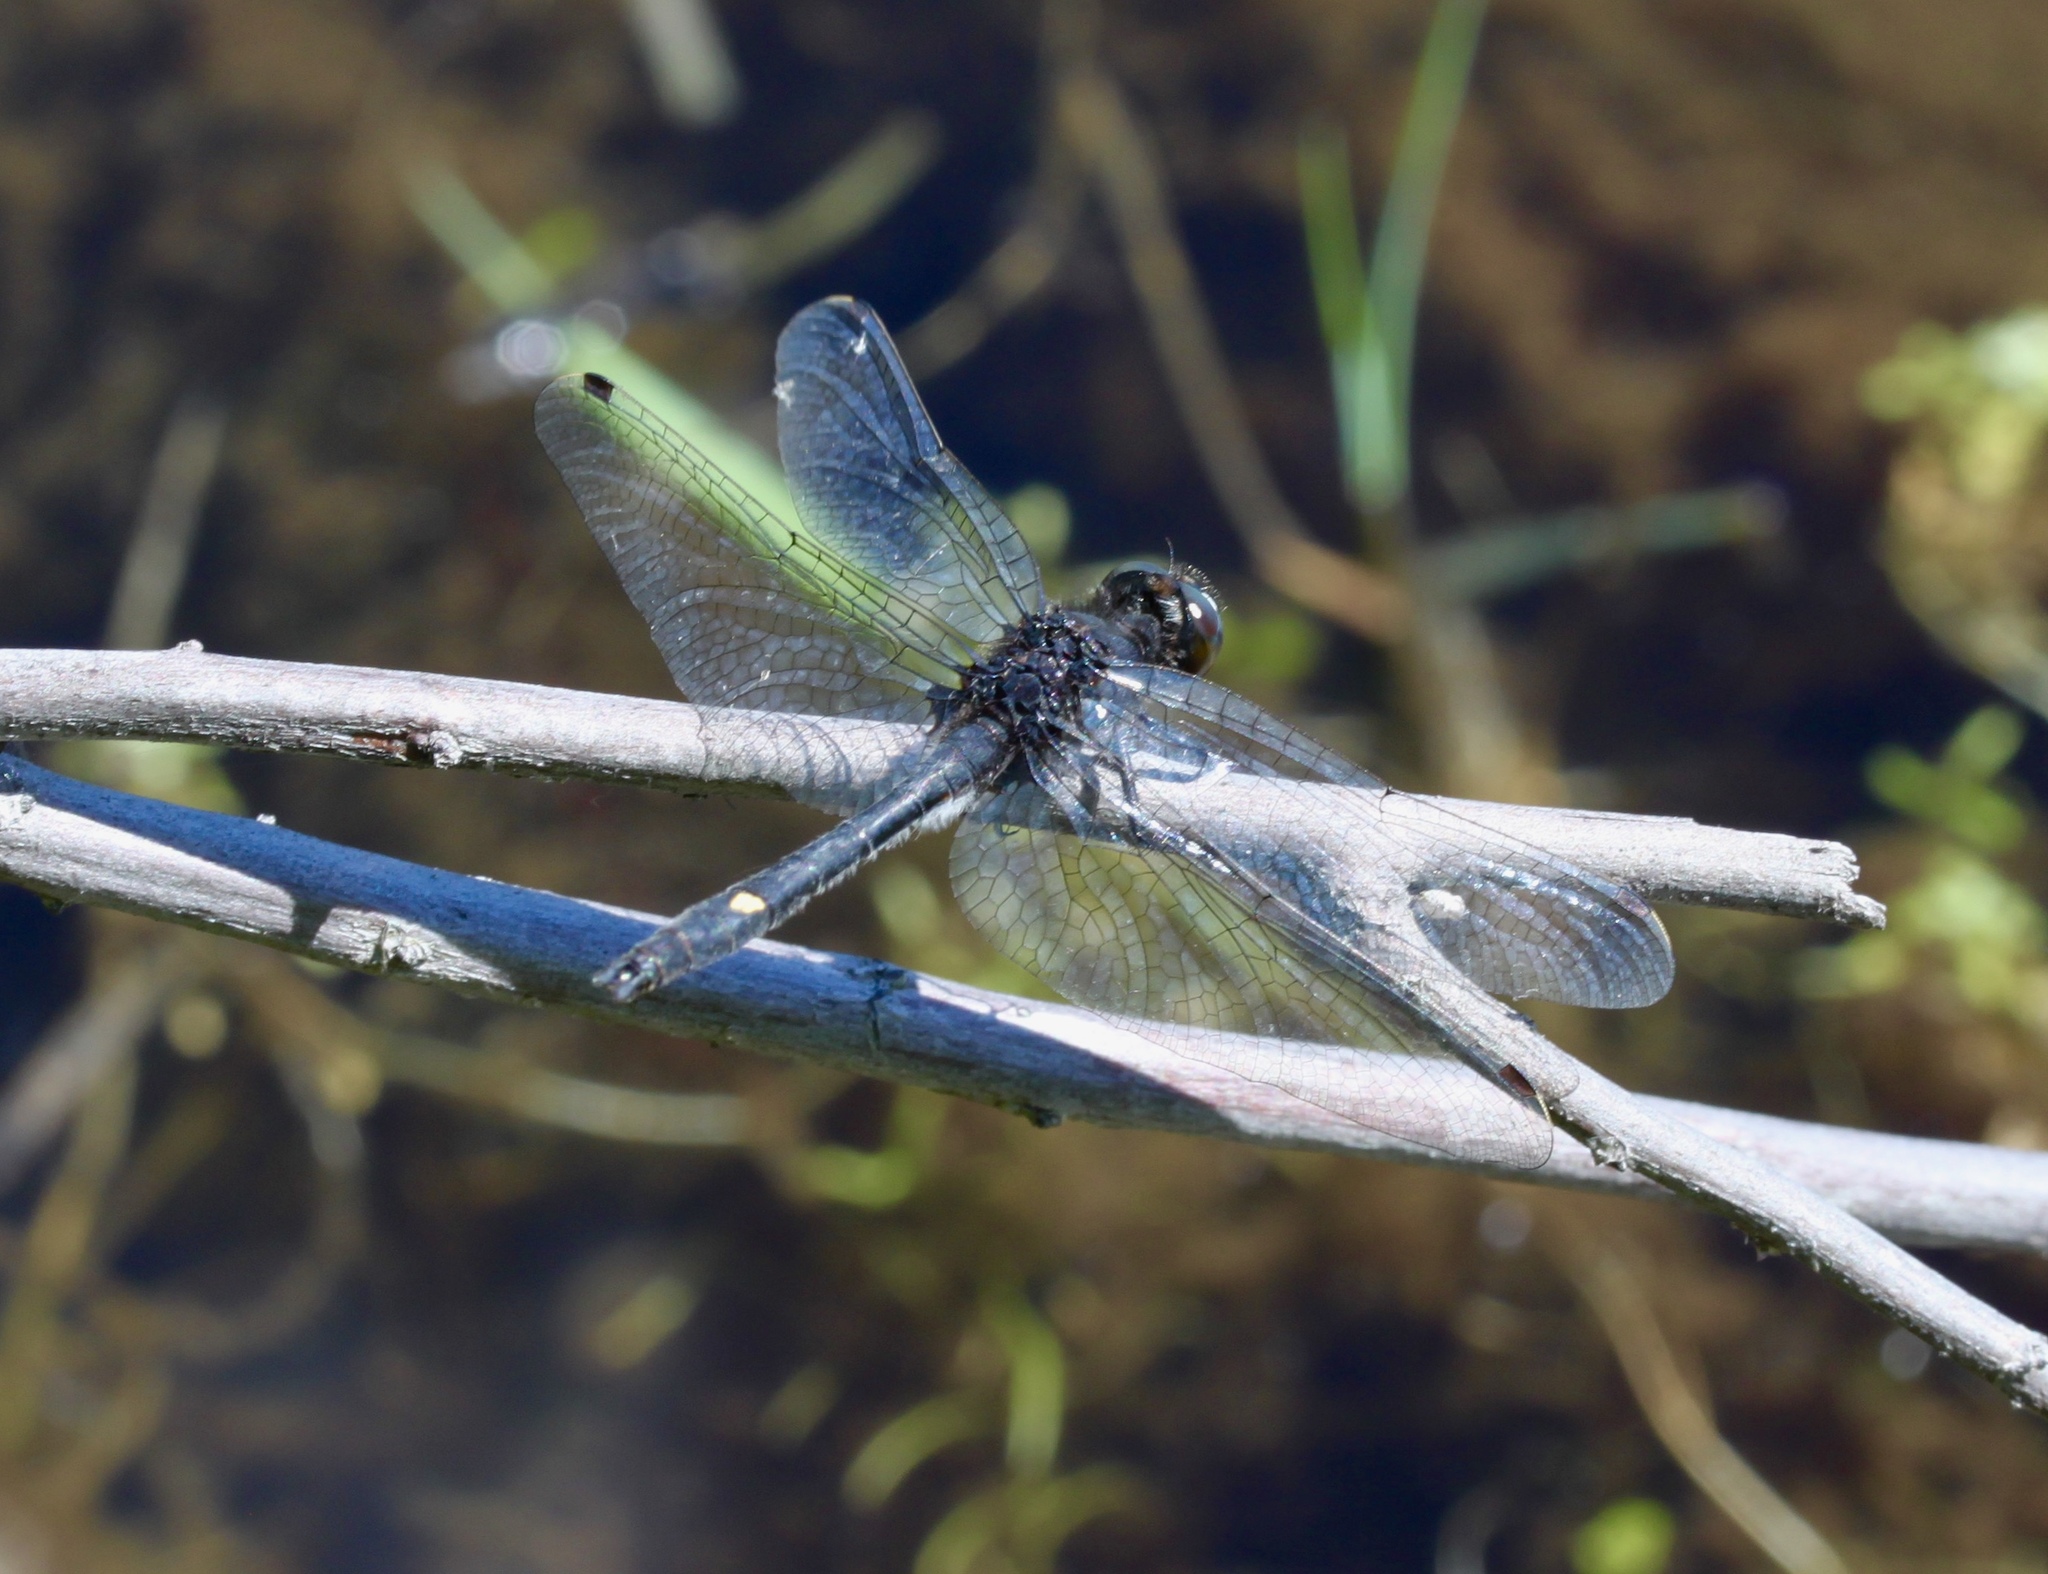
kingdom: Animalia
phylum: Arthropoda
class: Insecta
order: Odonata
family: Libellulidae
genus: Leucorrhinia
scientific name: Leucorrhinia intacta
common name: Dot-tailed whiteface
